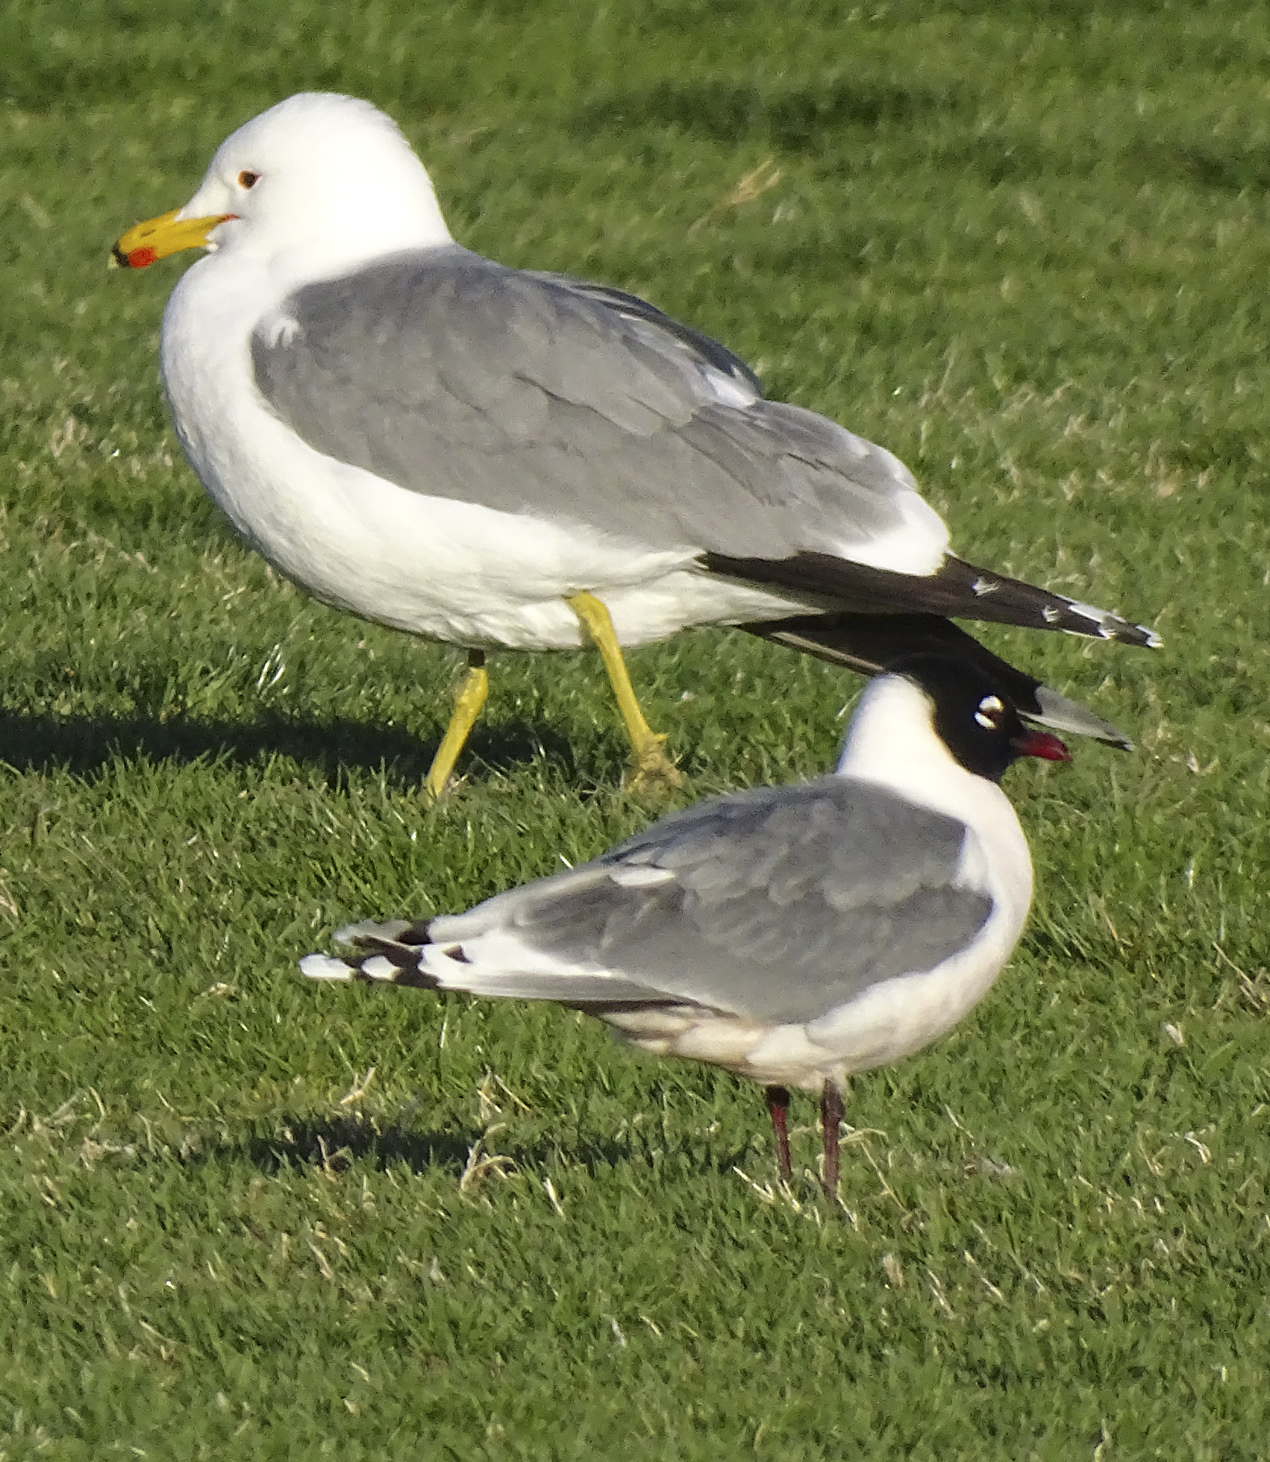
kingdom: Animalia
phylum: Chordata
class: Aves
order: Charadriiformes
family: Laridae
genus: Leucophaeus
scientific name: Leucophaeus pipixcan
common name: Franklin's gull
